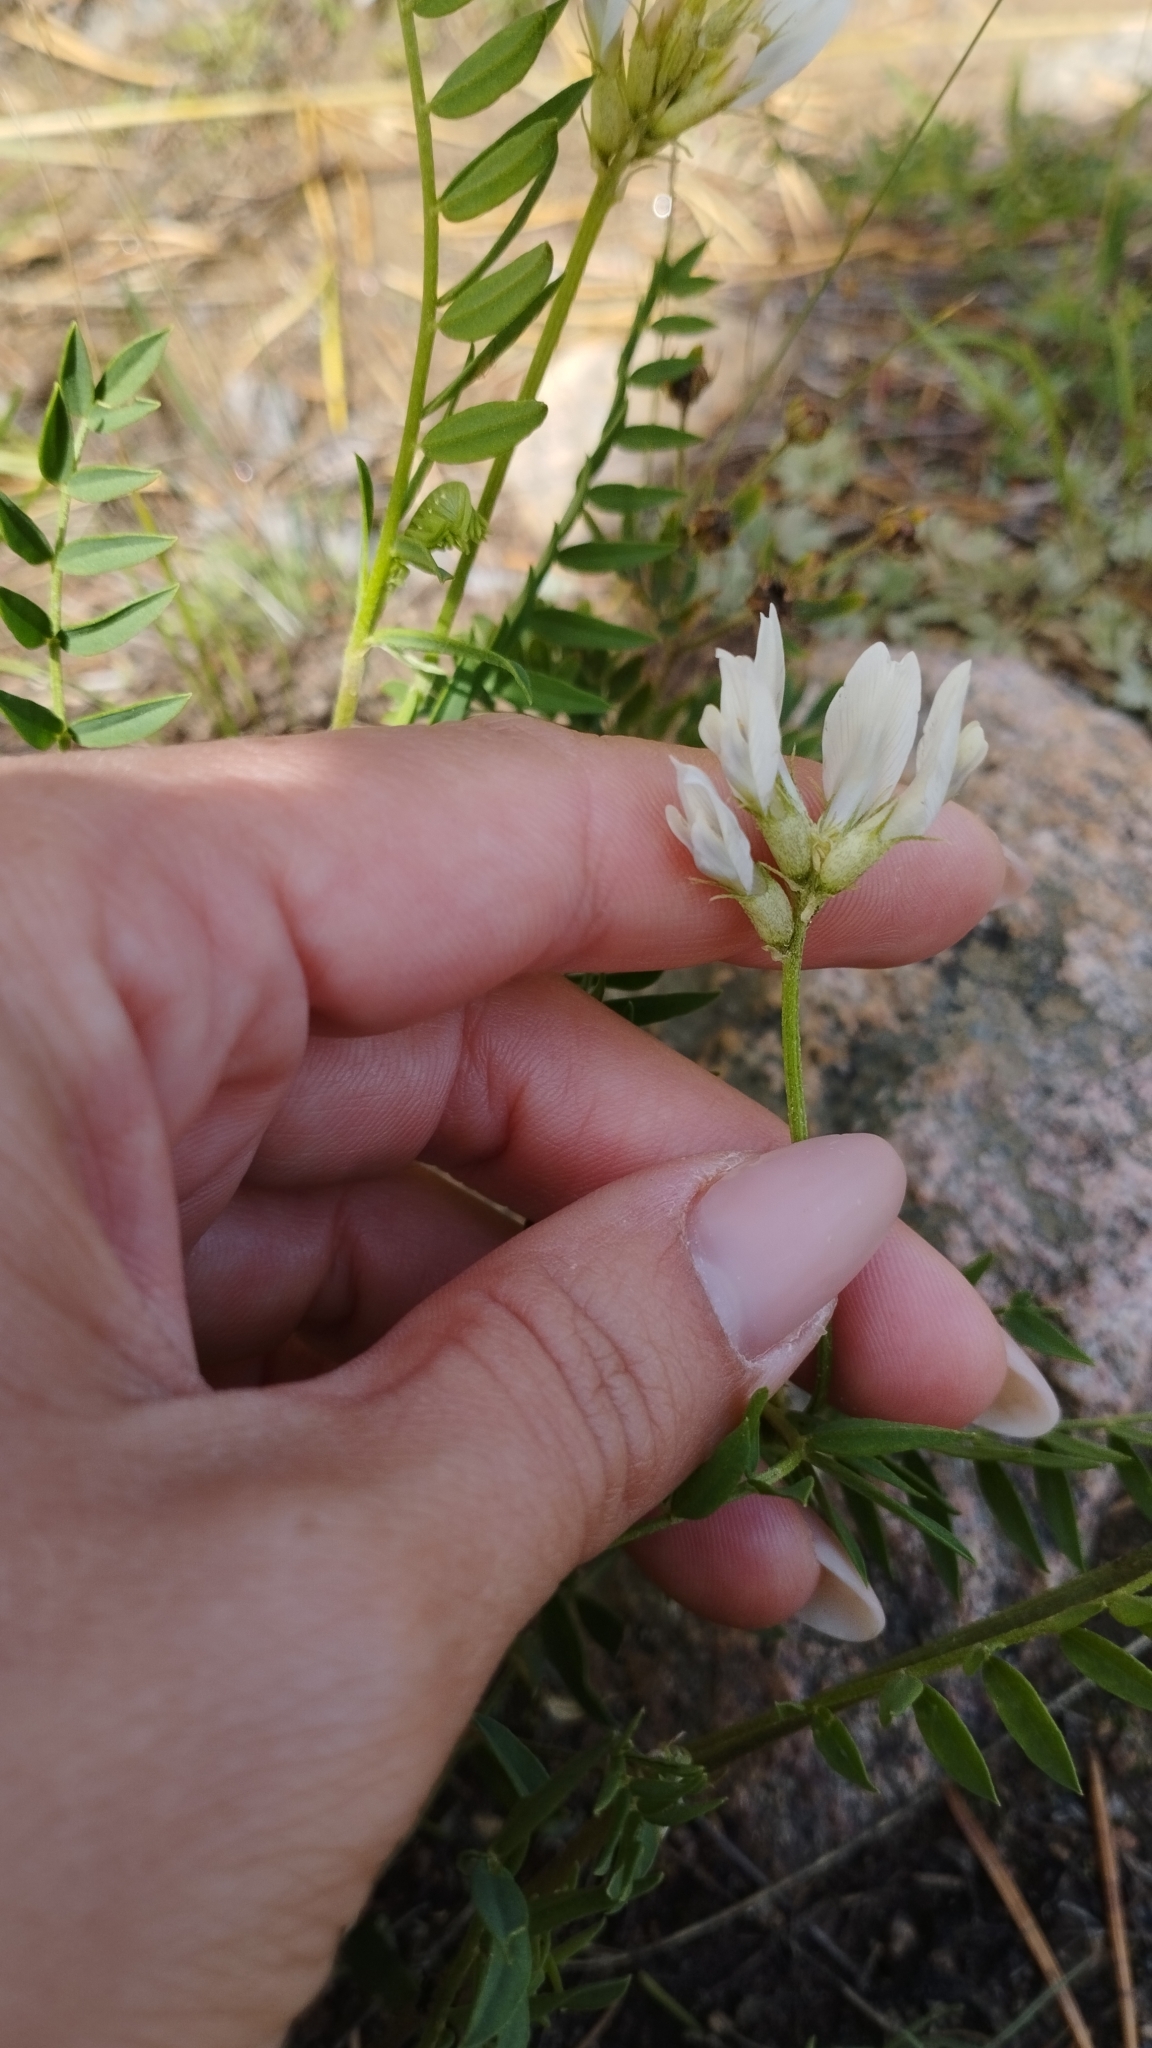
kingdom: Plantae
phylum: Tracheophyta
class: Magnoliopsida
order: Fabales
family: Fabaceae
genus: Astragalus
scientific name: Astragalus laxmannii
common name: Laxmann's milk-vetch
